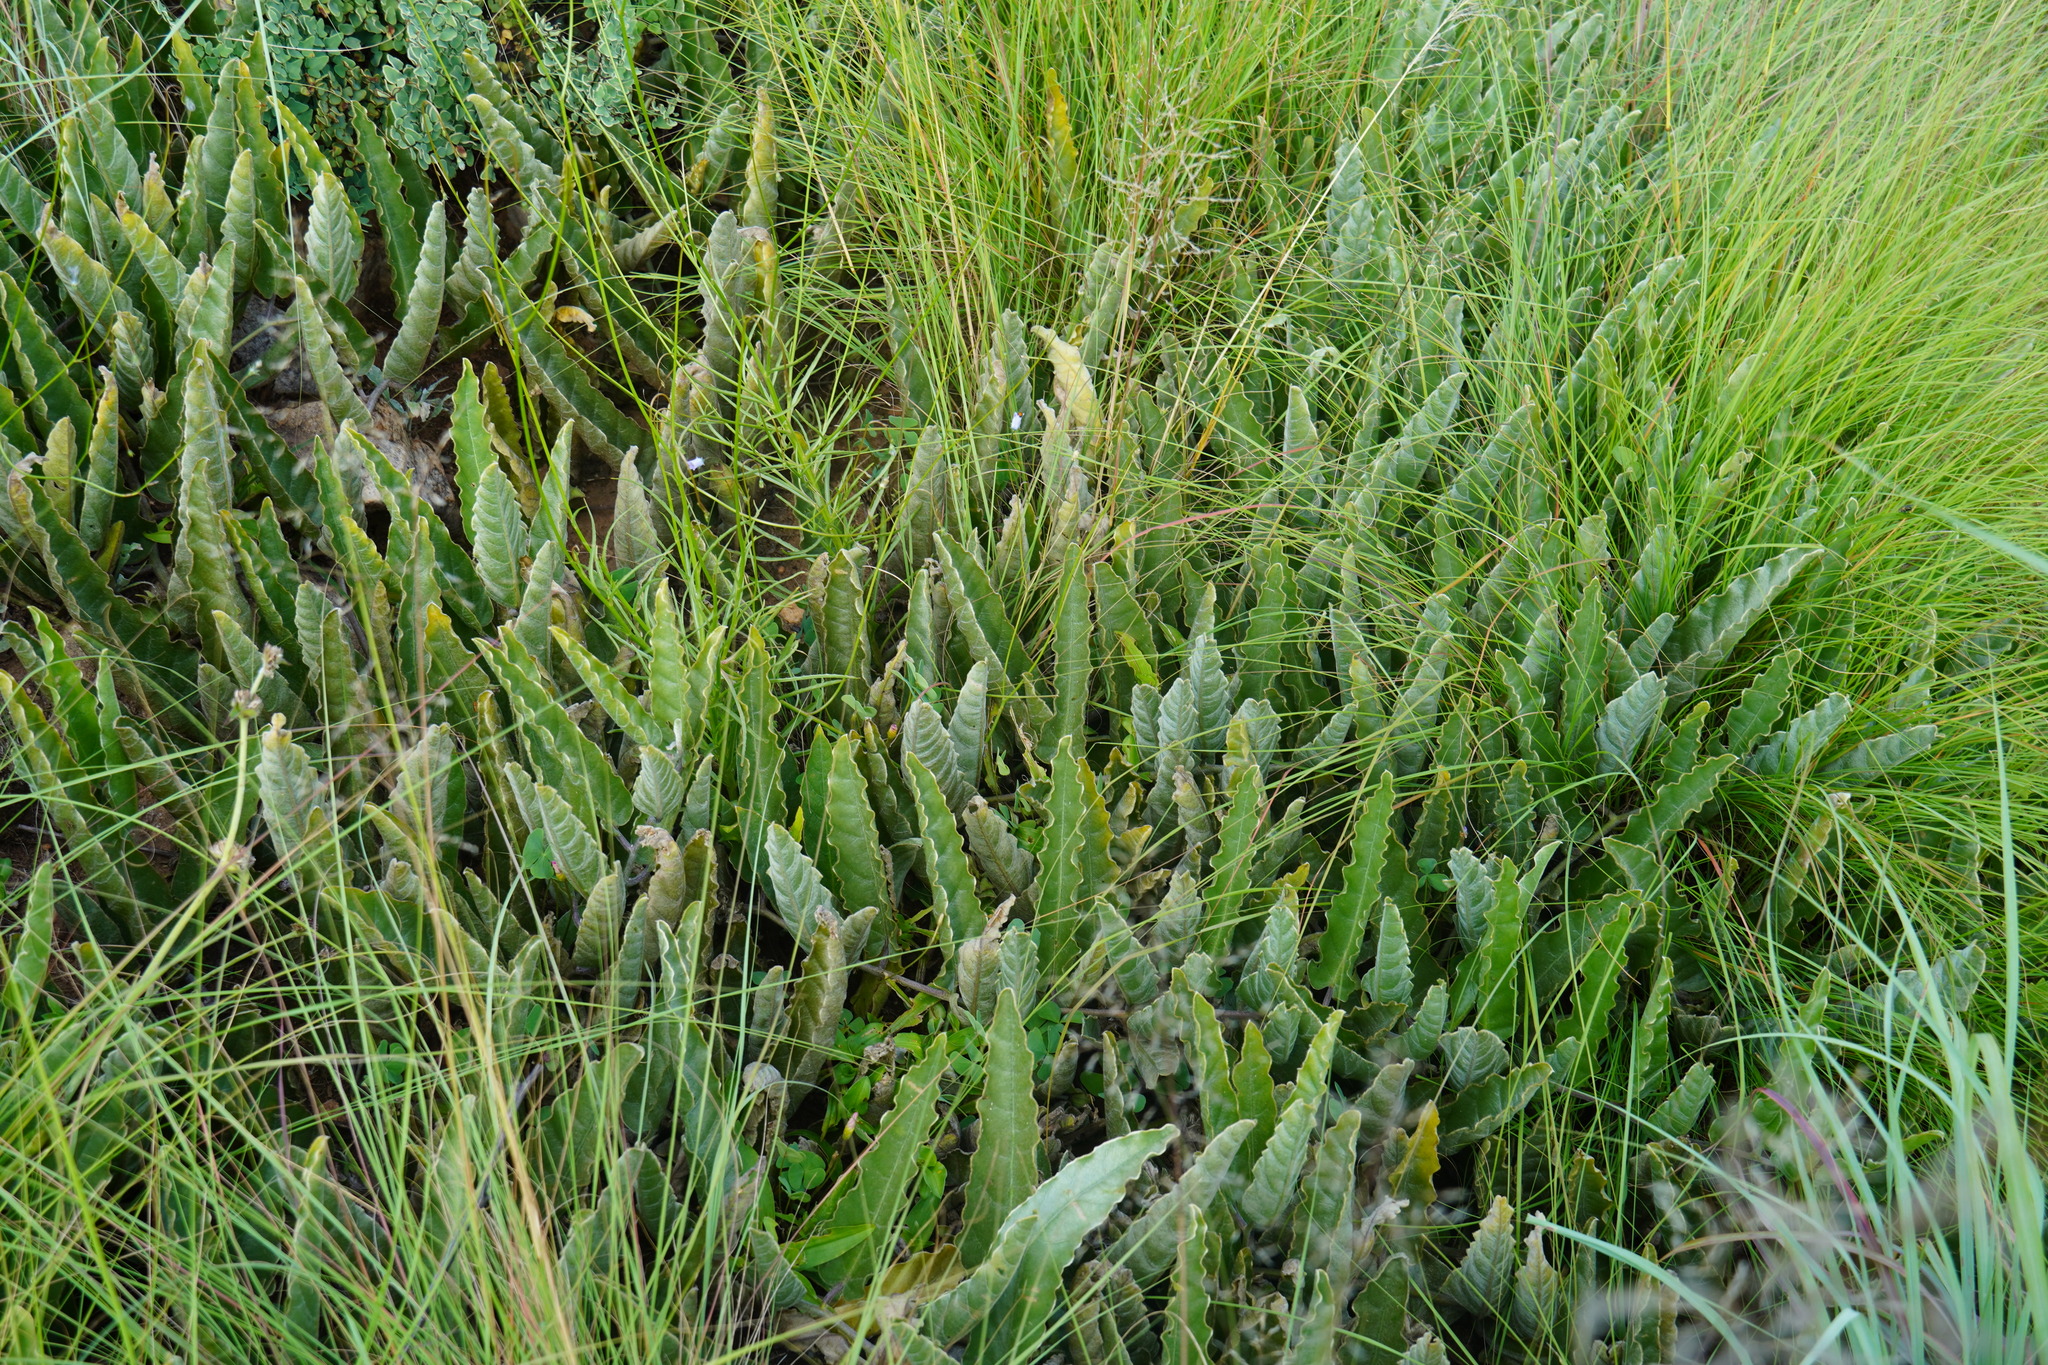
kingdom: Plantae
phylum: Tracheophyta
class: Magnoliopsida
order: Solanales
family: Convolvulaceae
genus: Ipomoea
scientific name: Ipomoea ommanneyi
